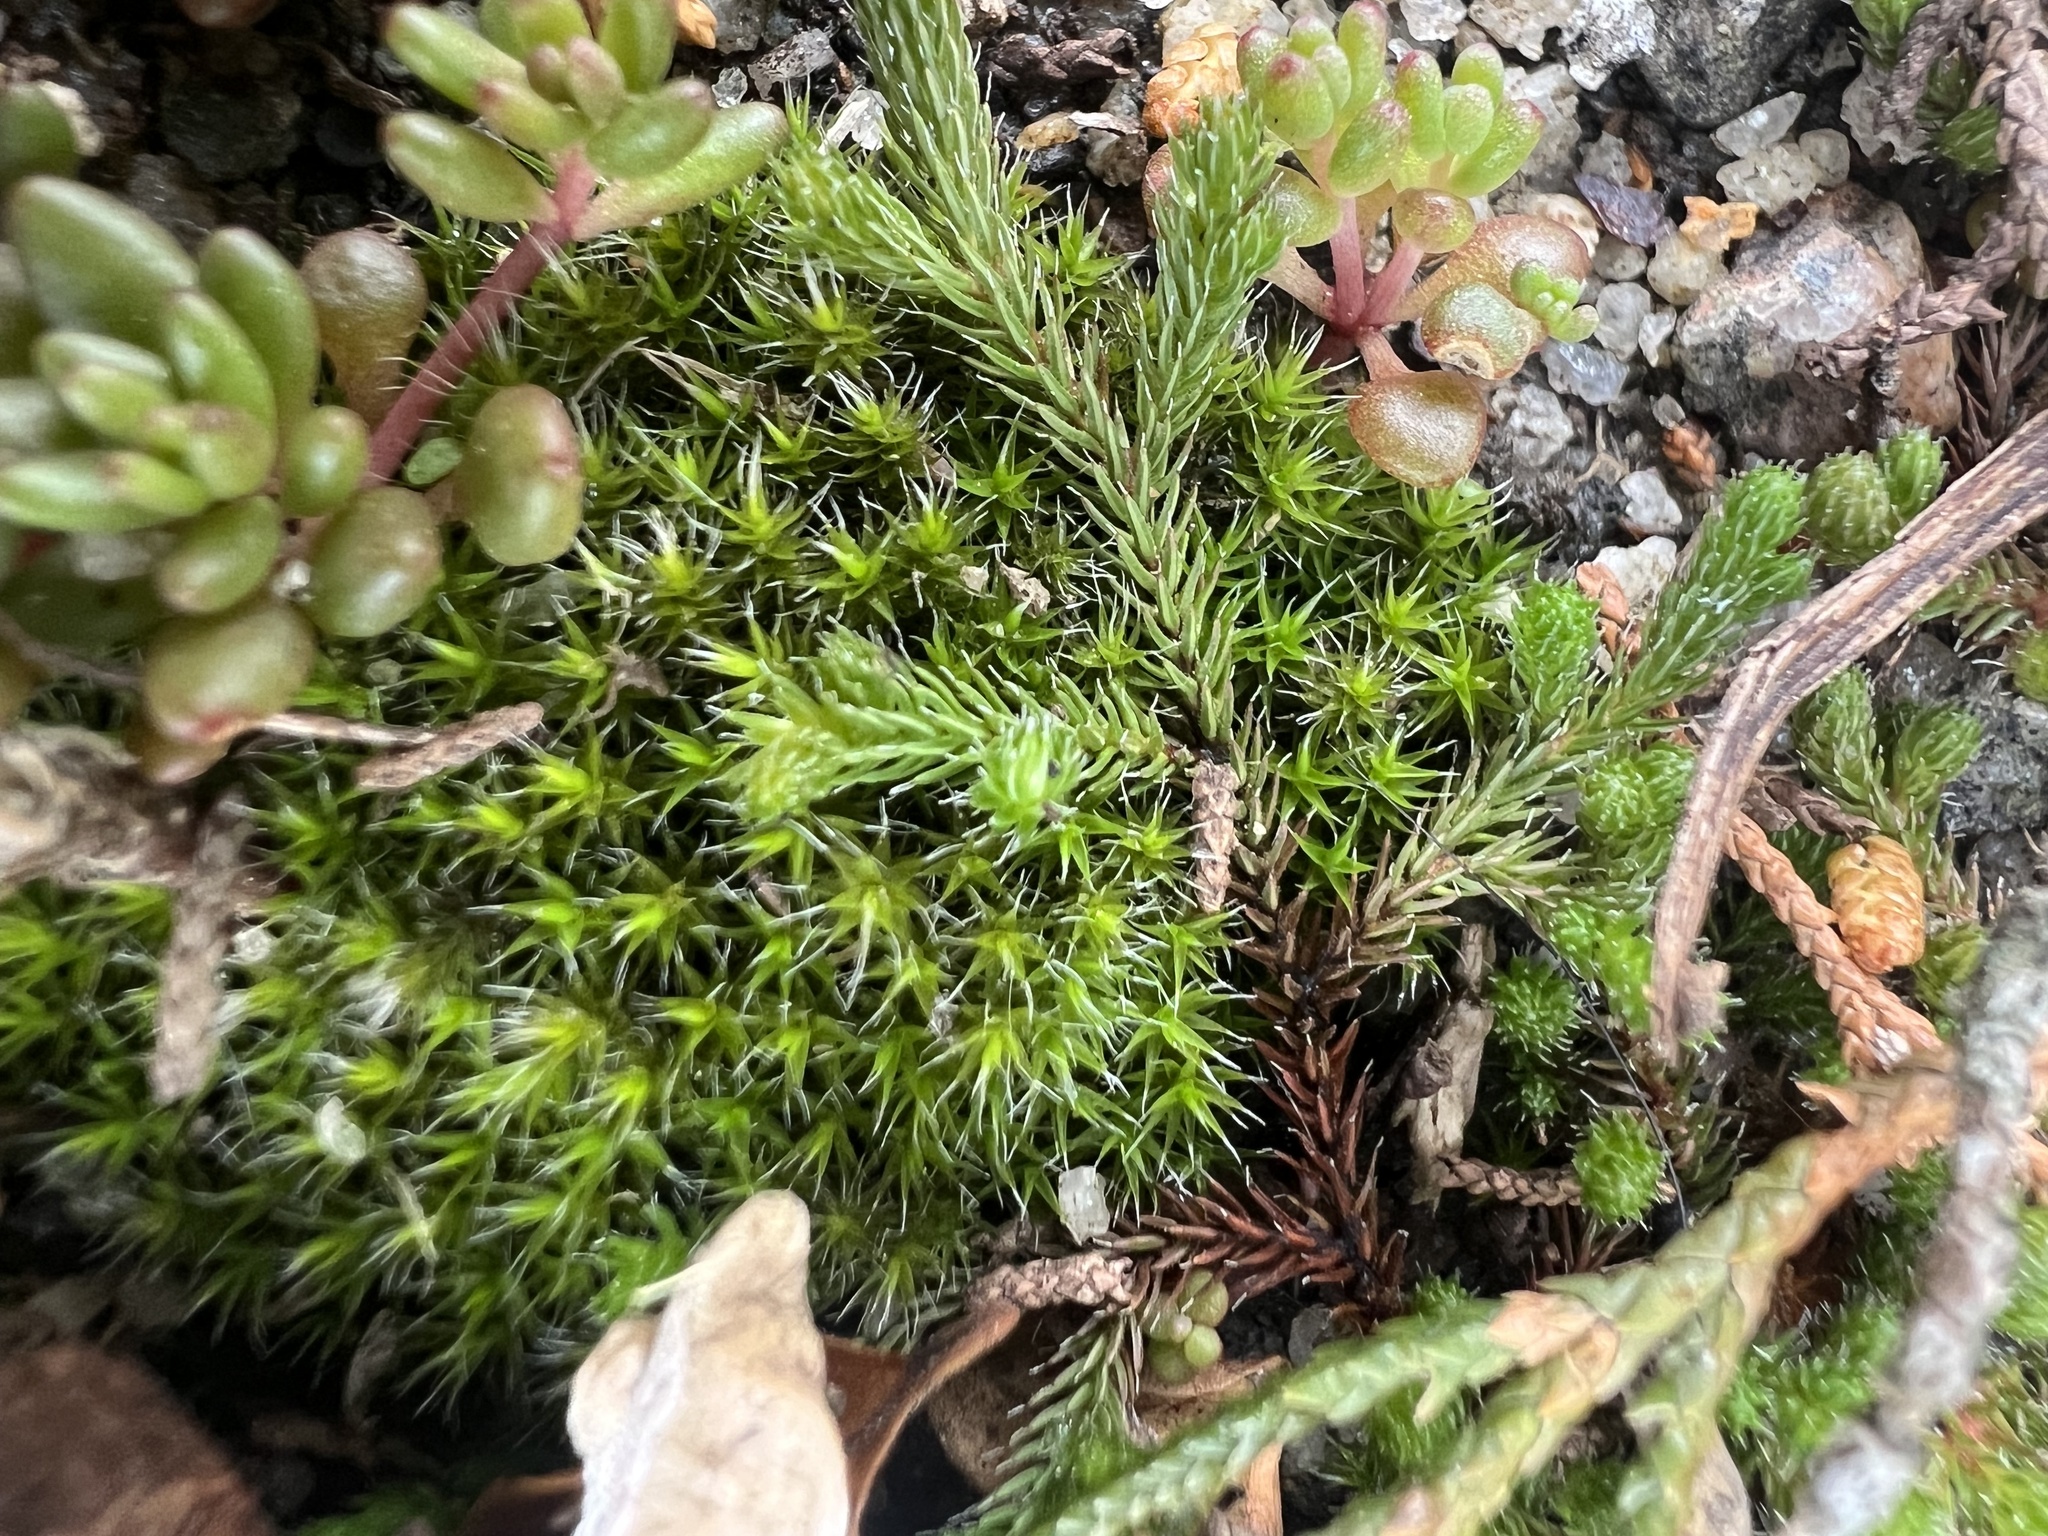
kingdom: Plantae
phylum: Tracheophyta
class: Lycopodiopsida
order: Selaginellales
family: Selaginellaceae
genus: Selaginella
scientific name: Selaginella rupestris
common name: Dwarf spikemoss
